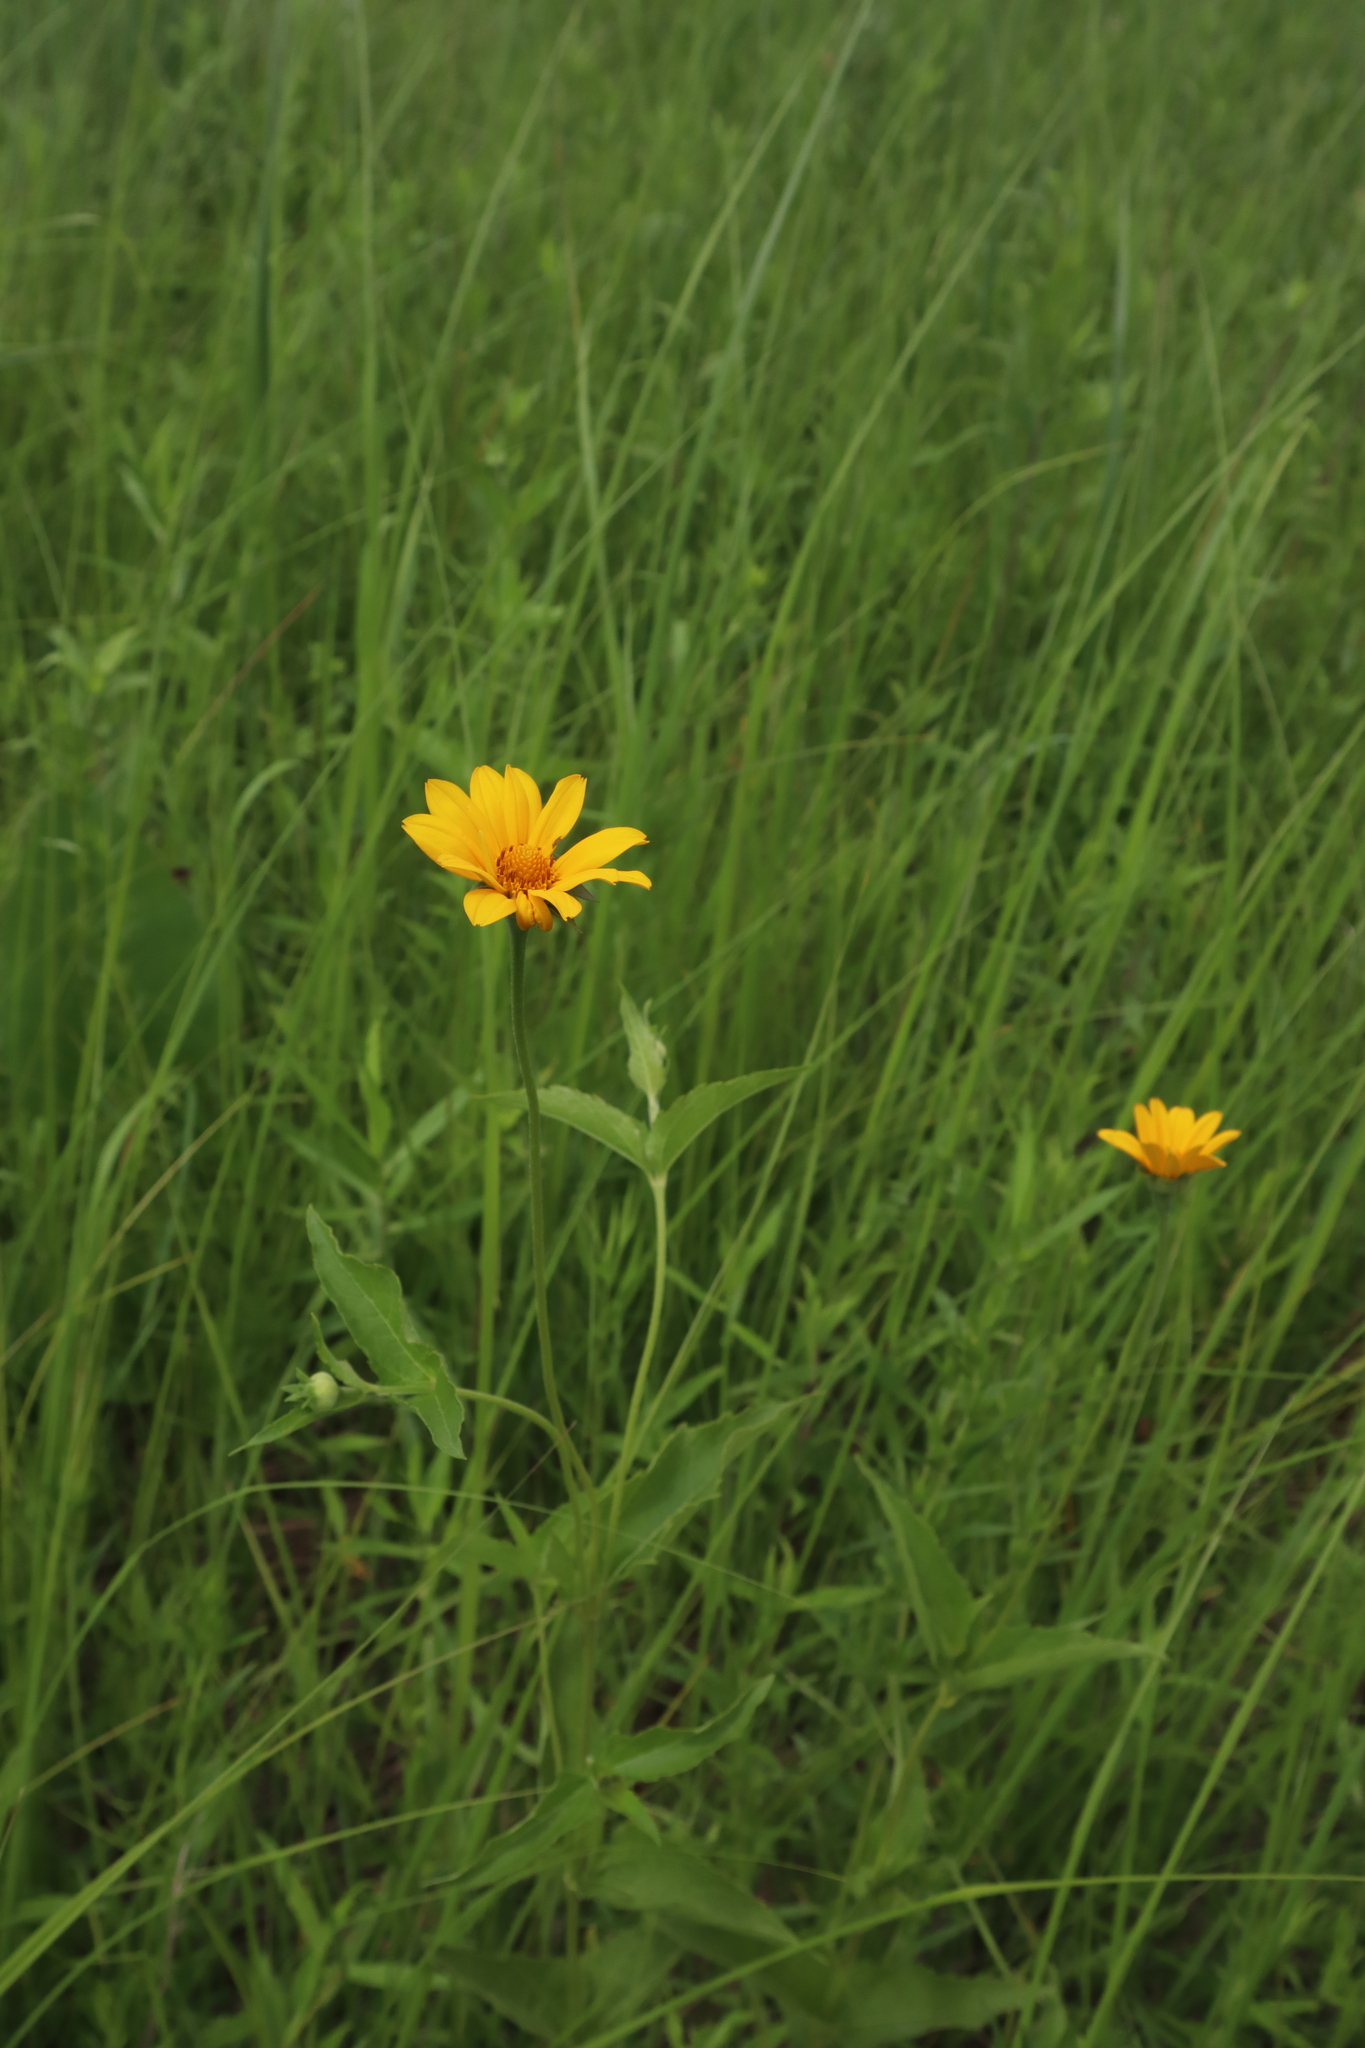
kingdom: Plantae
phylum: Tracheophyta
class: Magnoliopsida
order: Asterales
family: Asteraceae
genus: Heliopsis
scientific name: Heliopsis helianthoides
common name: False sunflower
